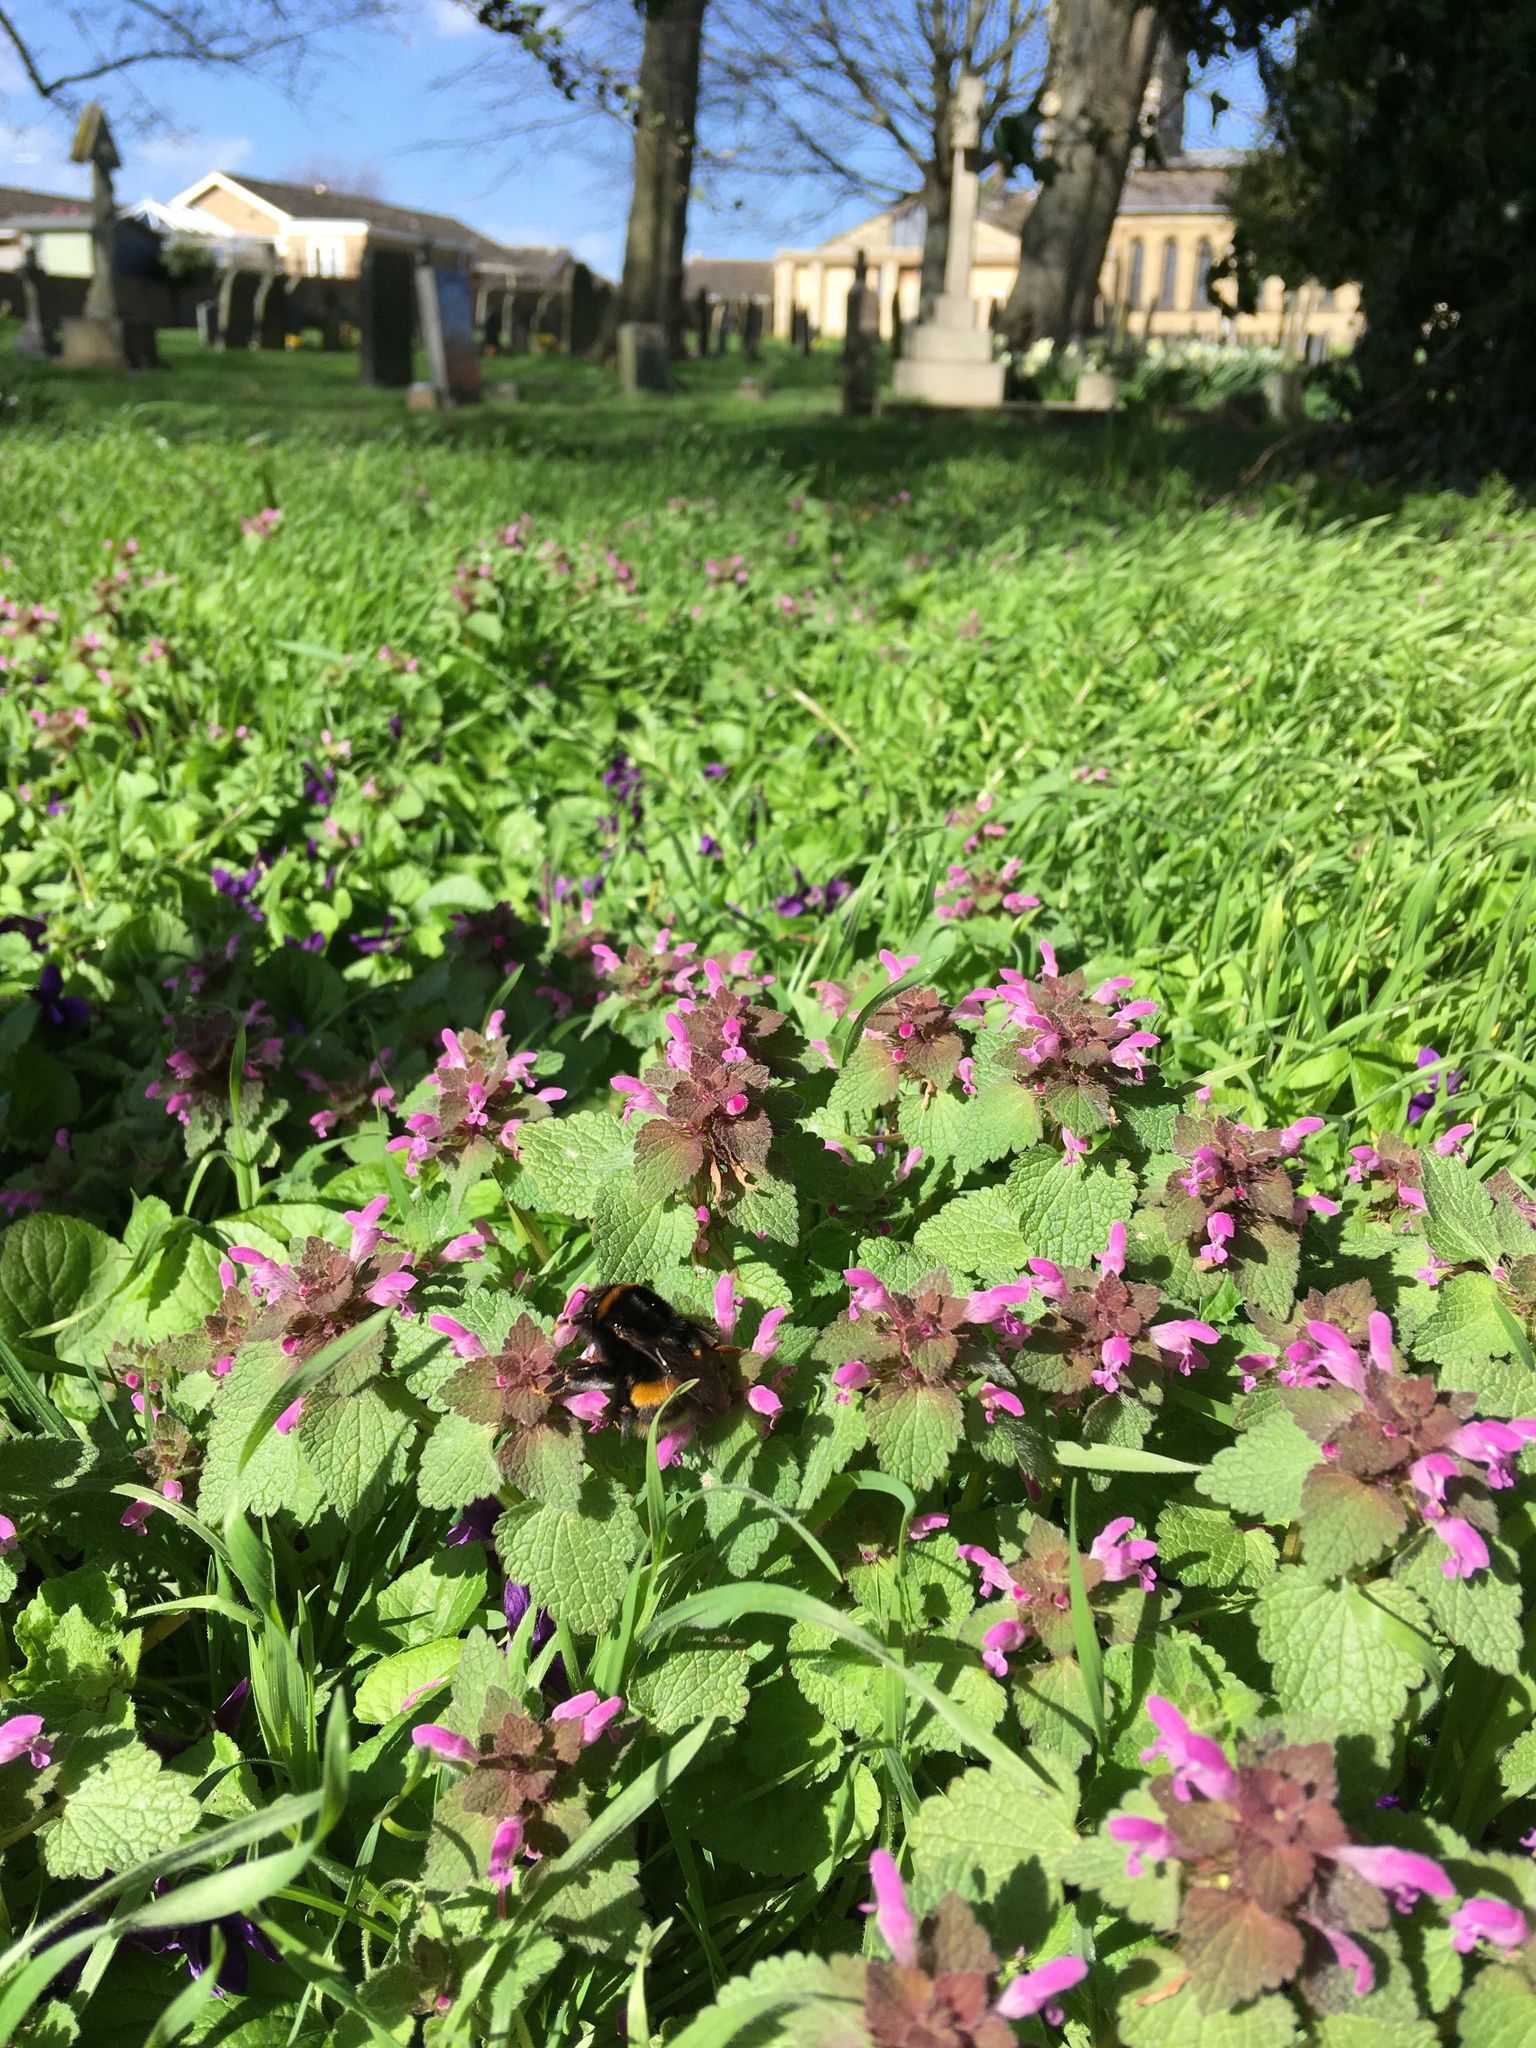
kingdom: Plantae
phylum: Tracheophyta
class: Magnoliopsida
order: Lamiales
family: Lamiaceae
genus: Lamium
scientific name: Lamium purpureum
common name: Red dead-nettle
